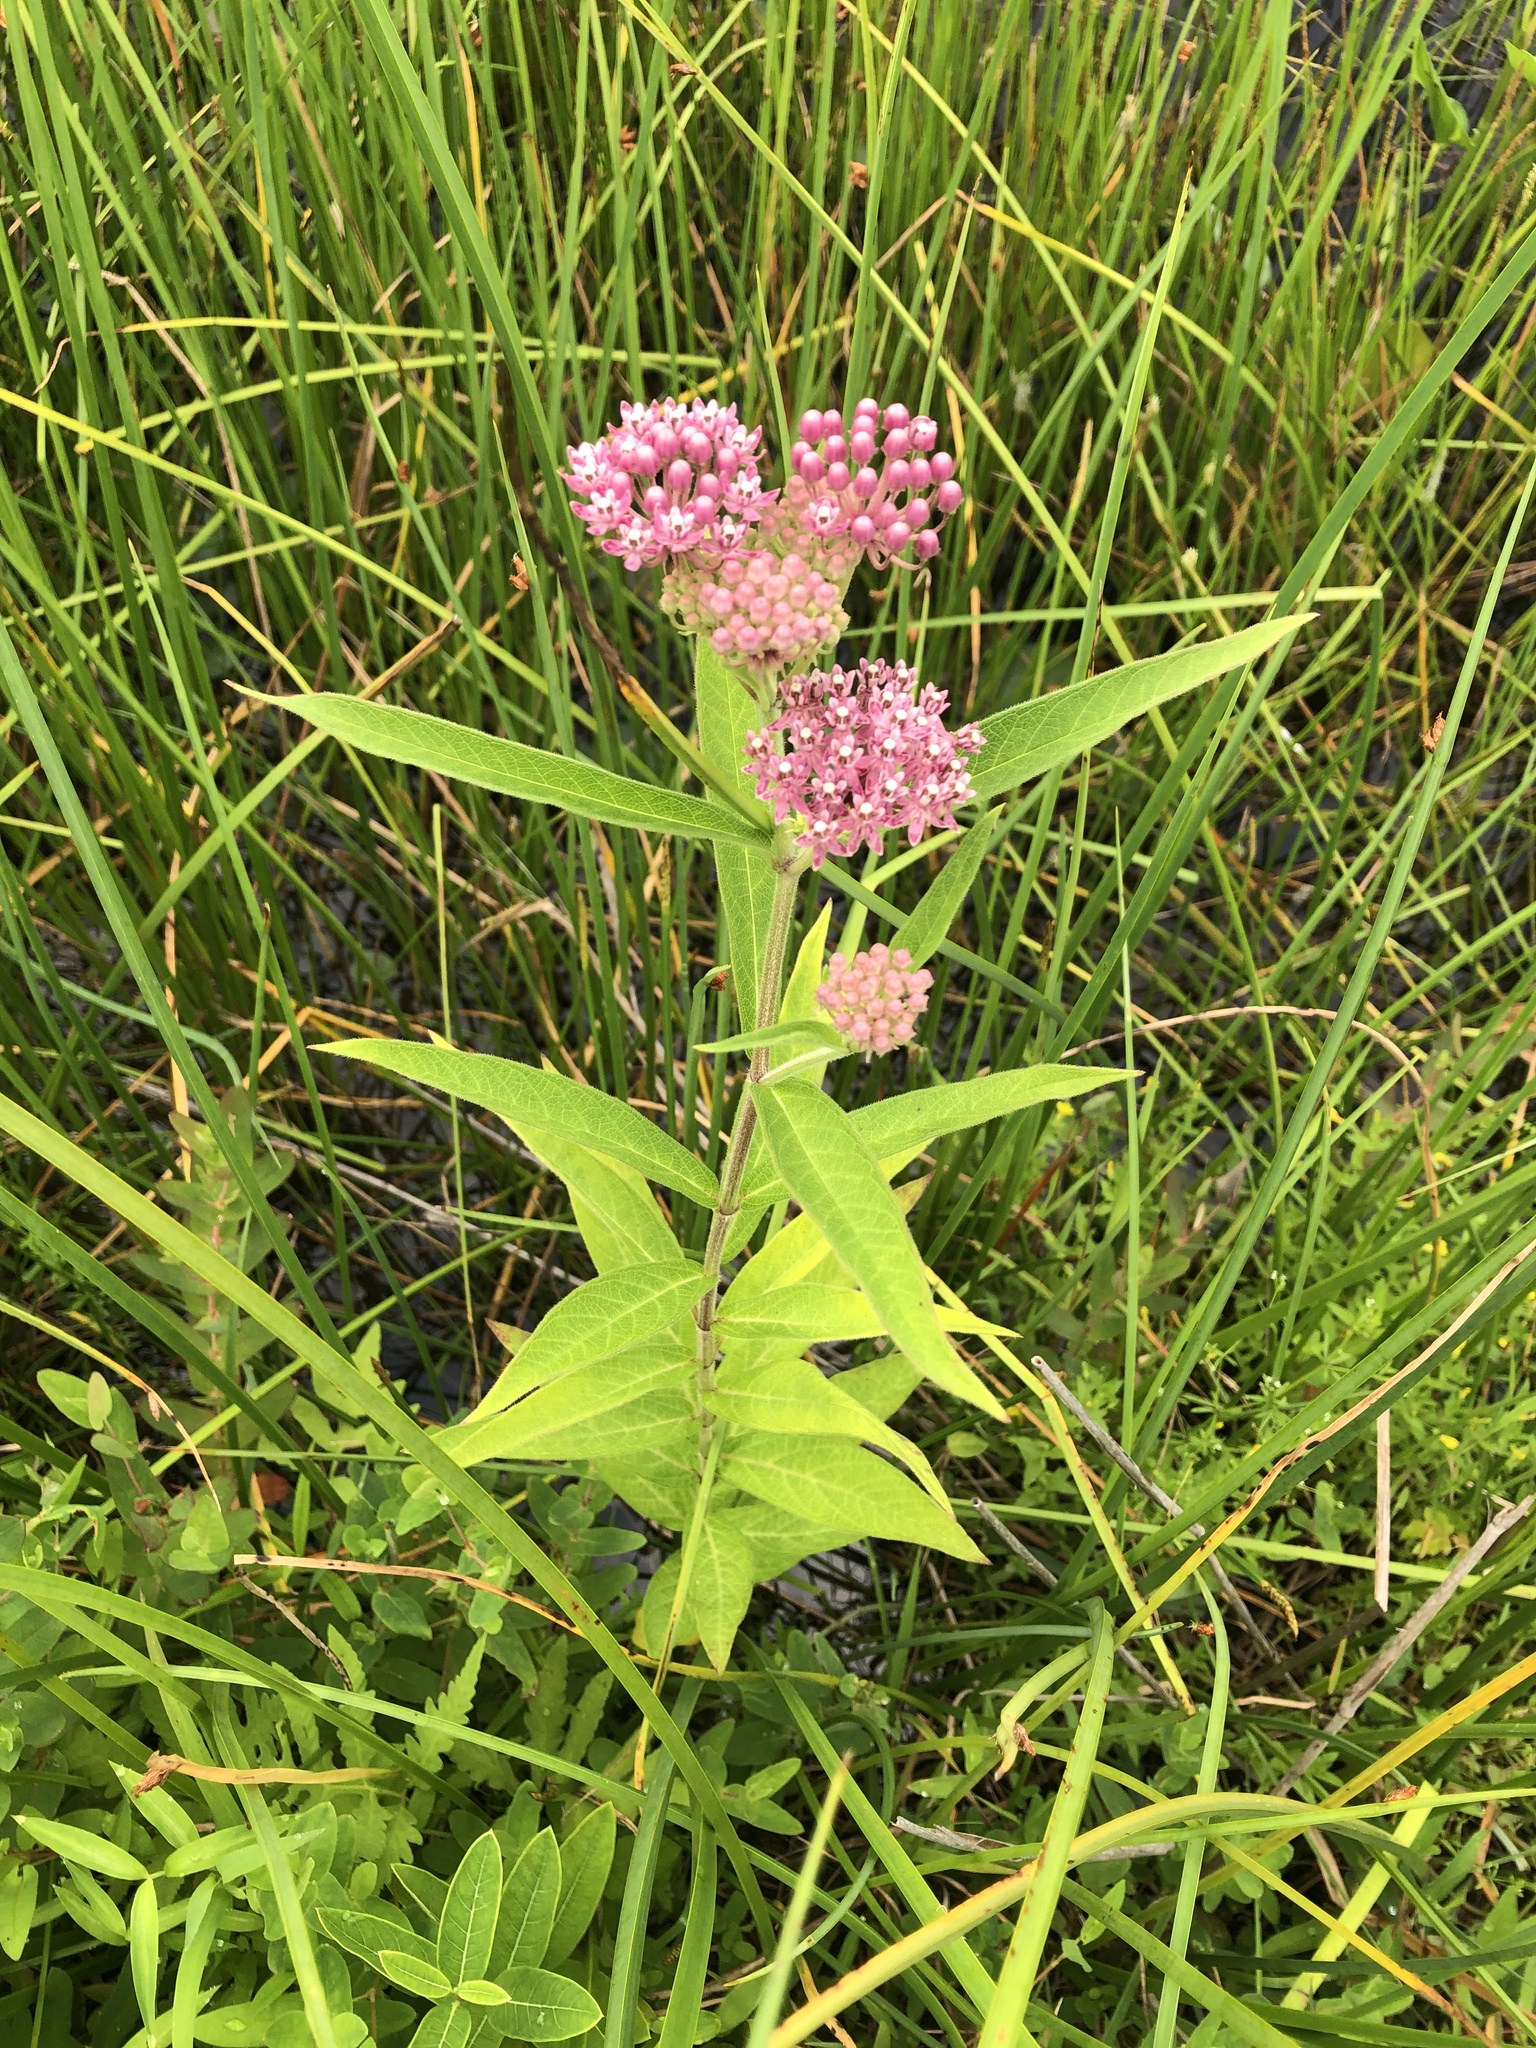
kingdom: Plantae
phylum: Tracheophyta
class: Magnoliopsida
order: Gentianales
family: Apocynaceae
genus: Asclepias
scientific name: Asclepias incarnata
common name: Swamp milkweed
